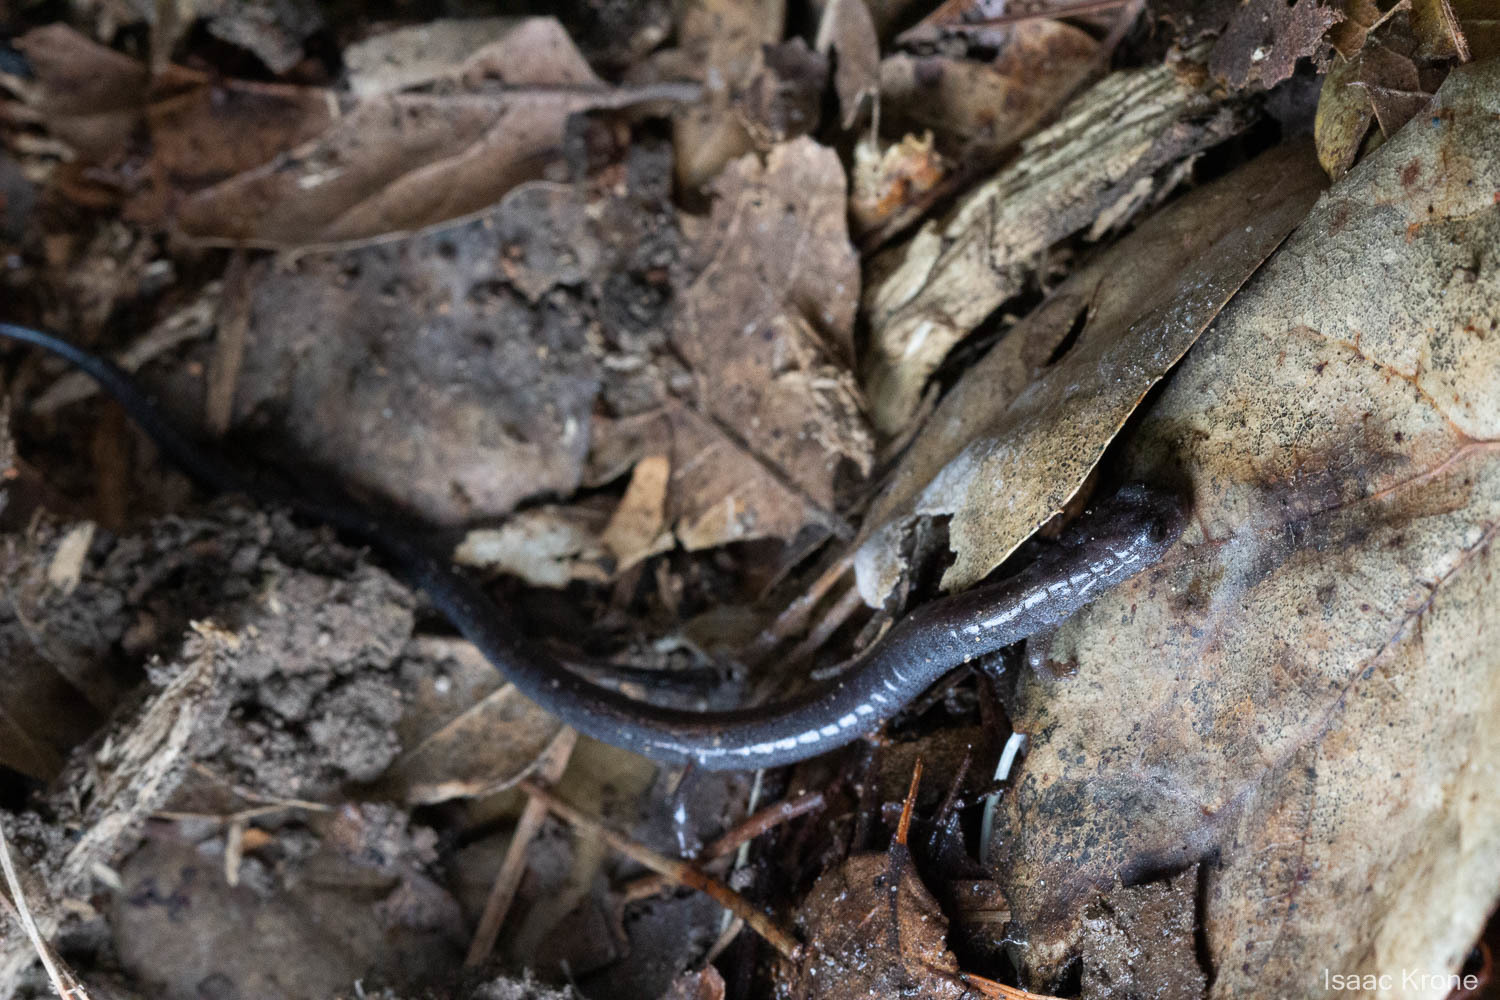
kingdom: Animalia
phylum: Chordata
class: Amphibia
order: Caudata
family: Plethodontidae
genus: Batrachoseps
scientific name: Batrachoseps attenuatus
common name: California slender salamander
